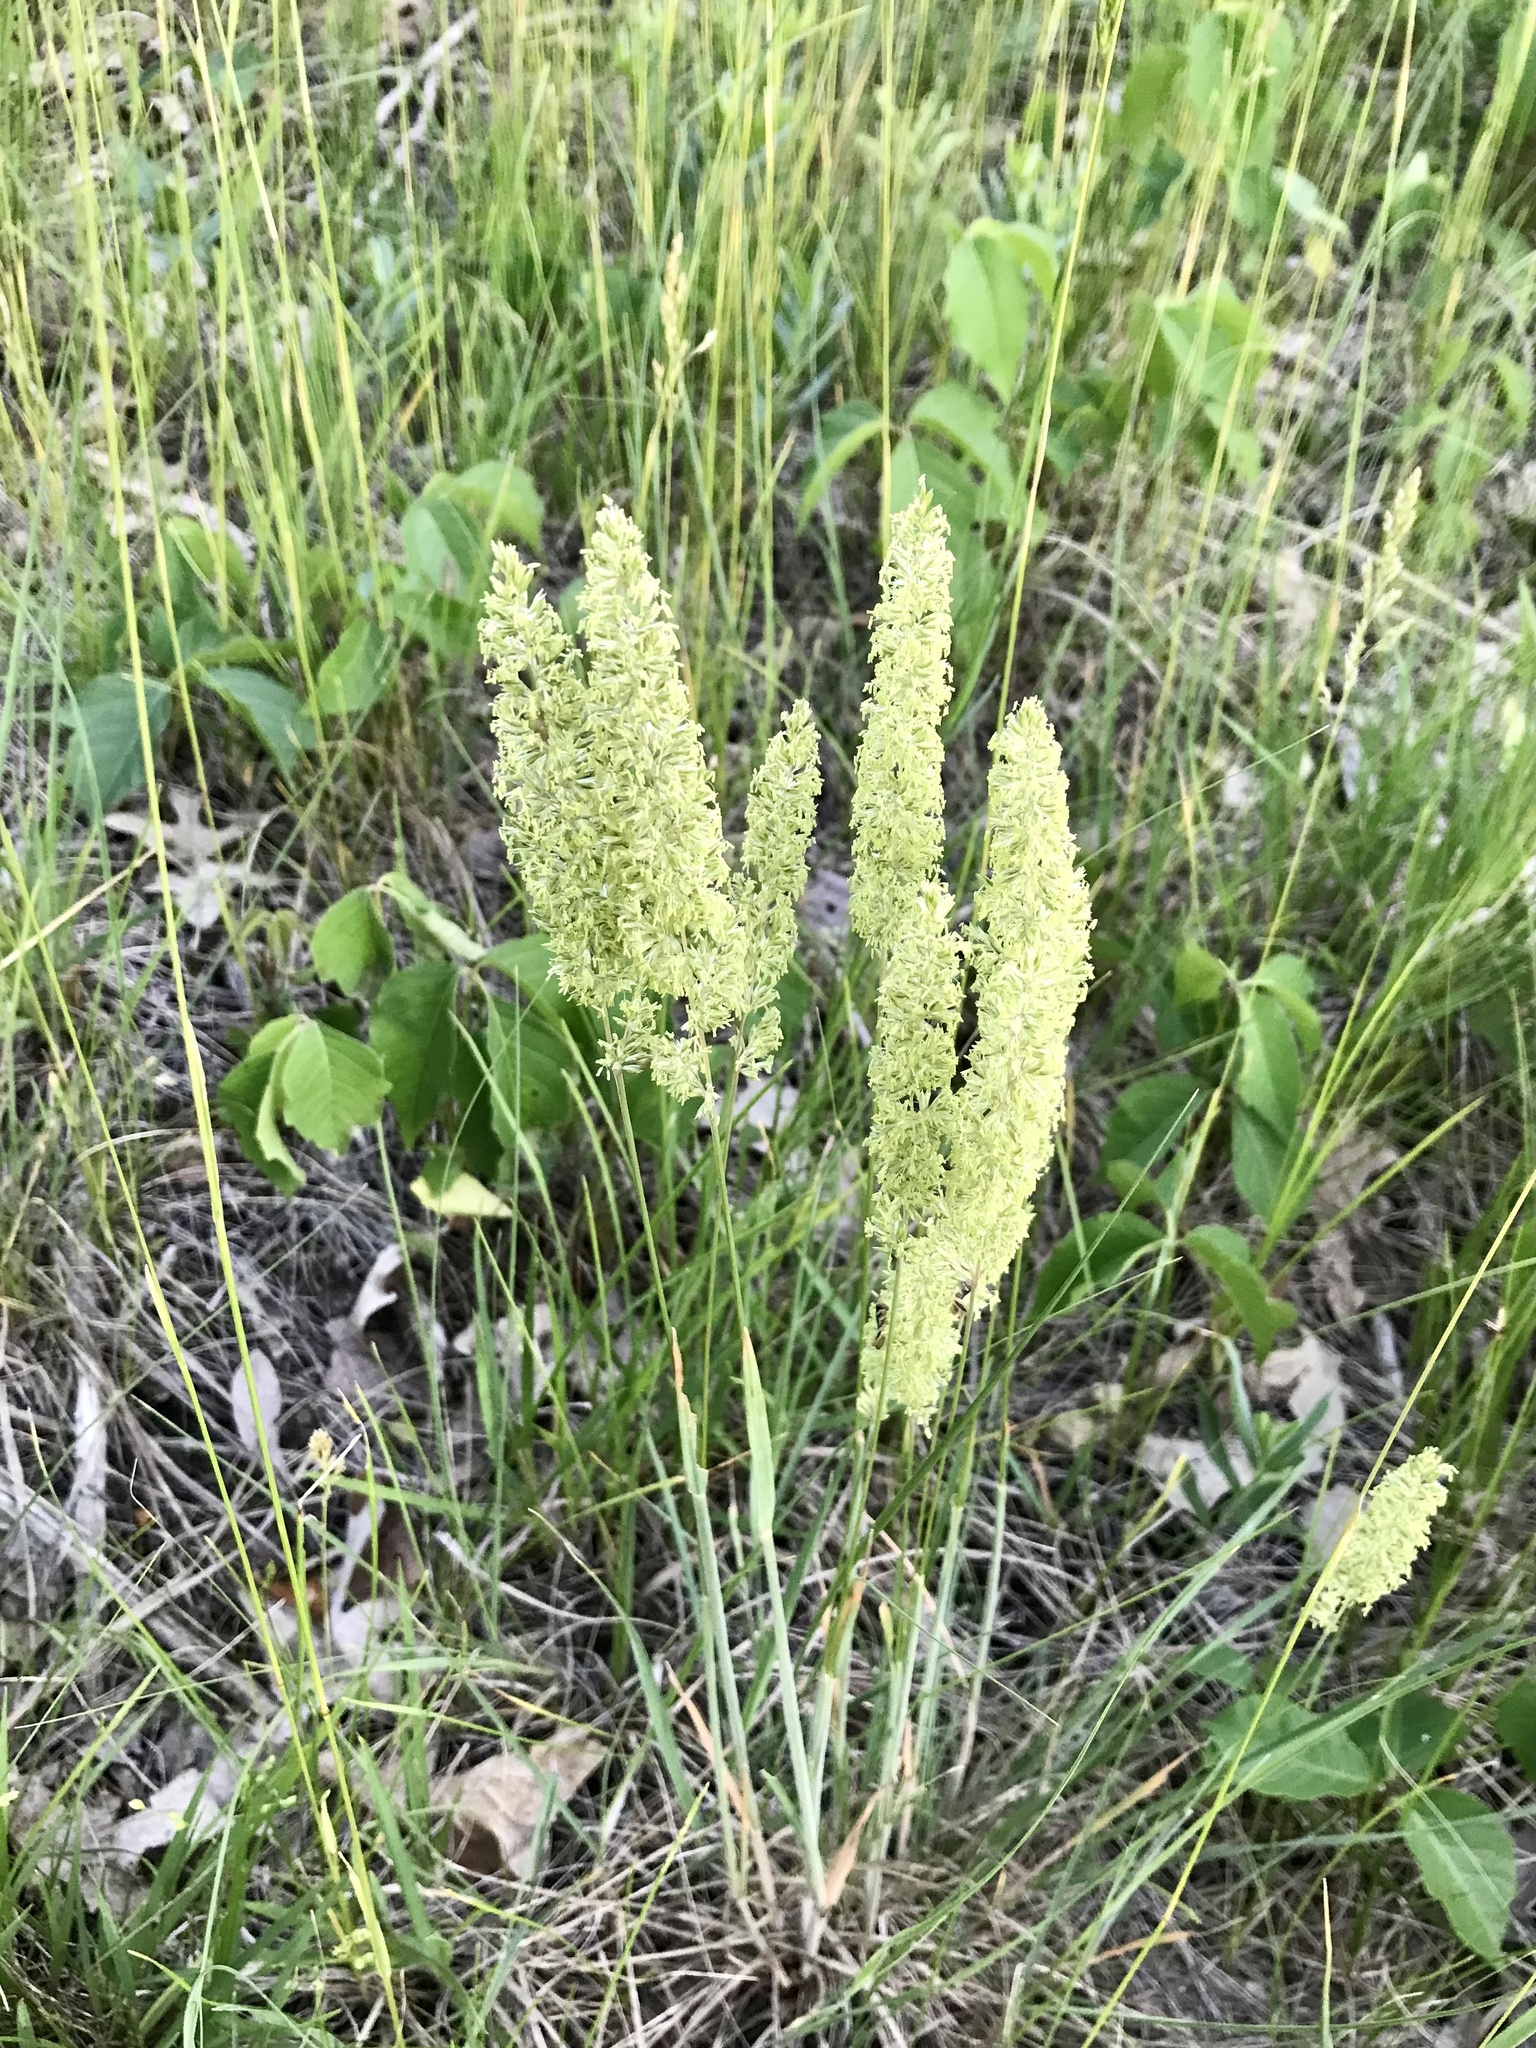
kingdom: Plantae
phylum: Tracheophyta
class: Liliopsida
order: Poales
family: Poaceae
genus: Koeleria
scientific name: Koeleria macrantha
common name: Crested hair-grass
